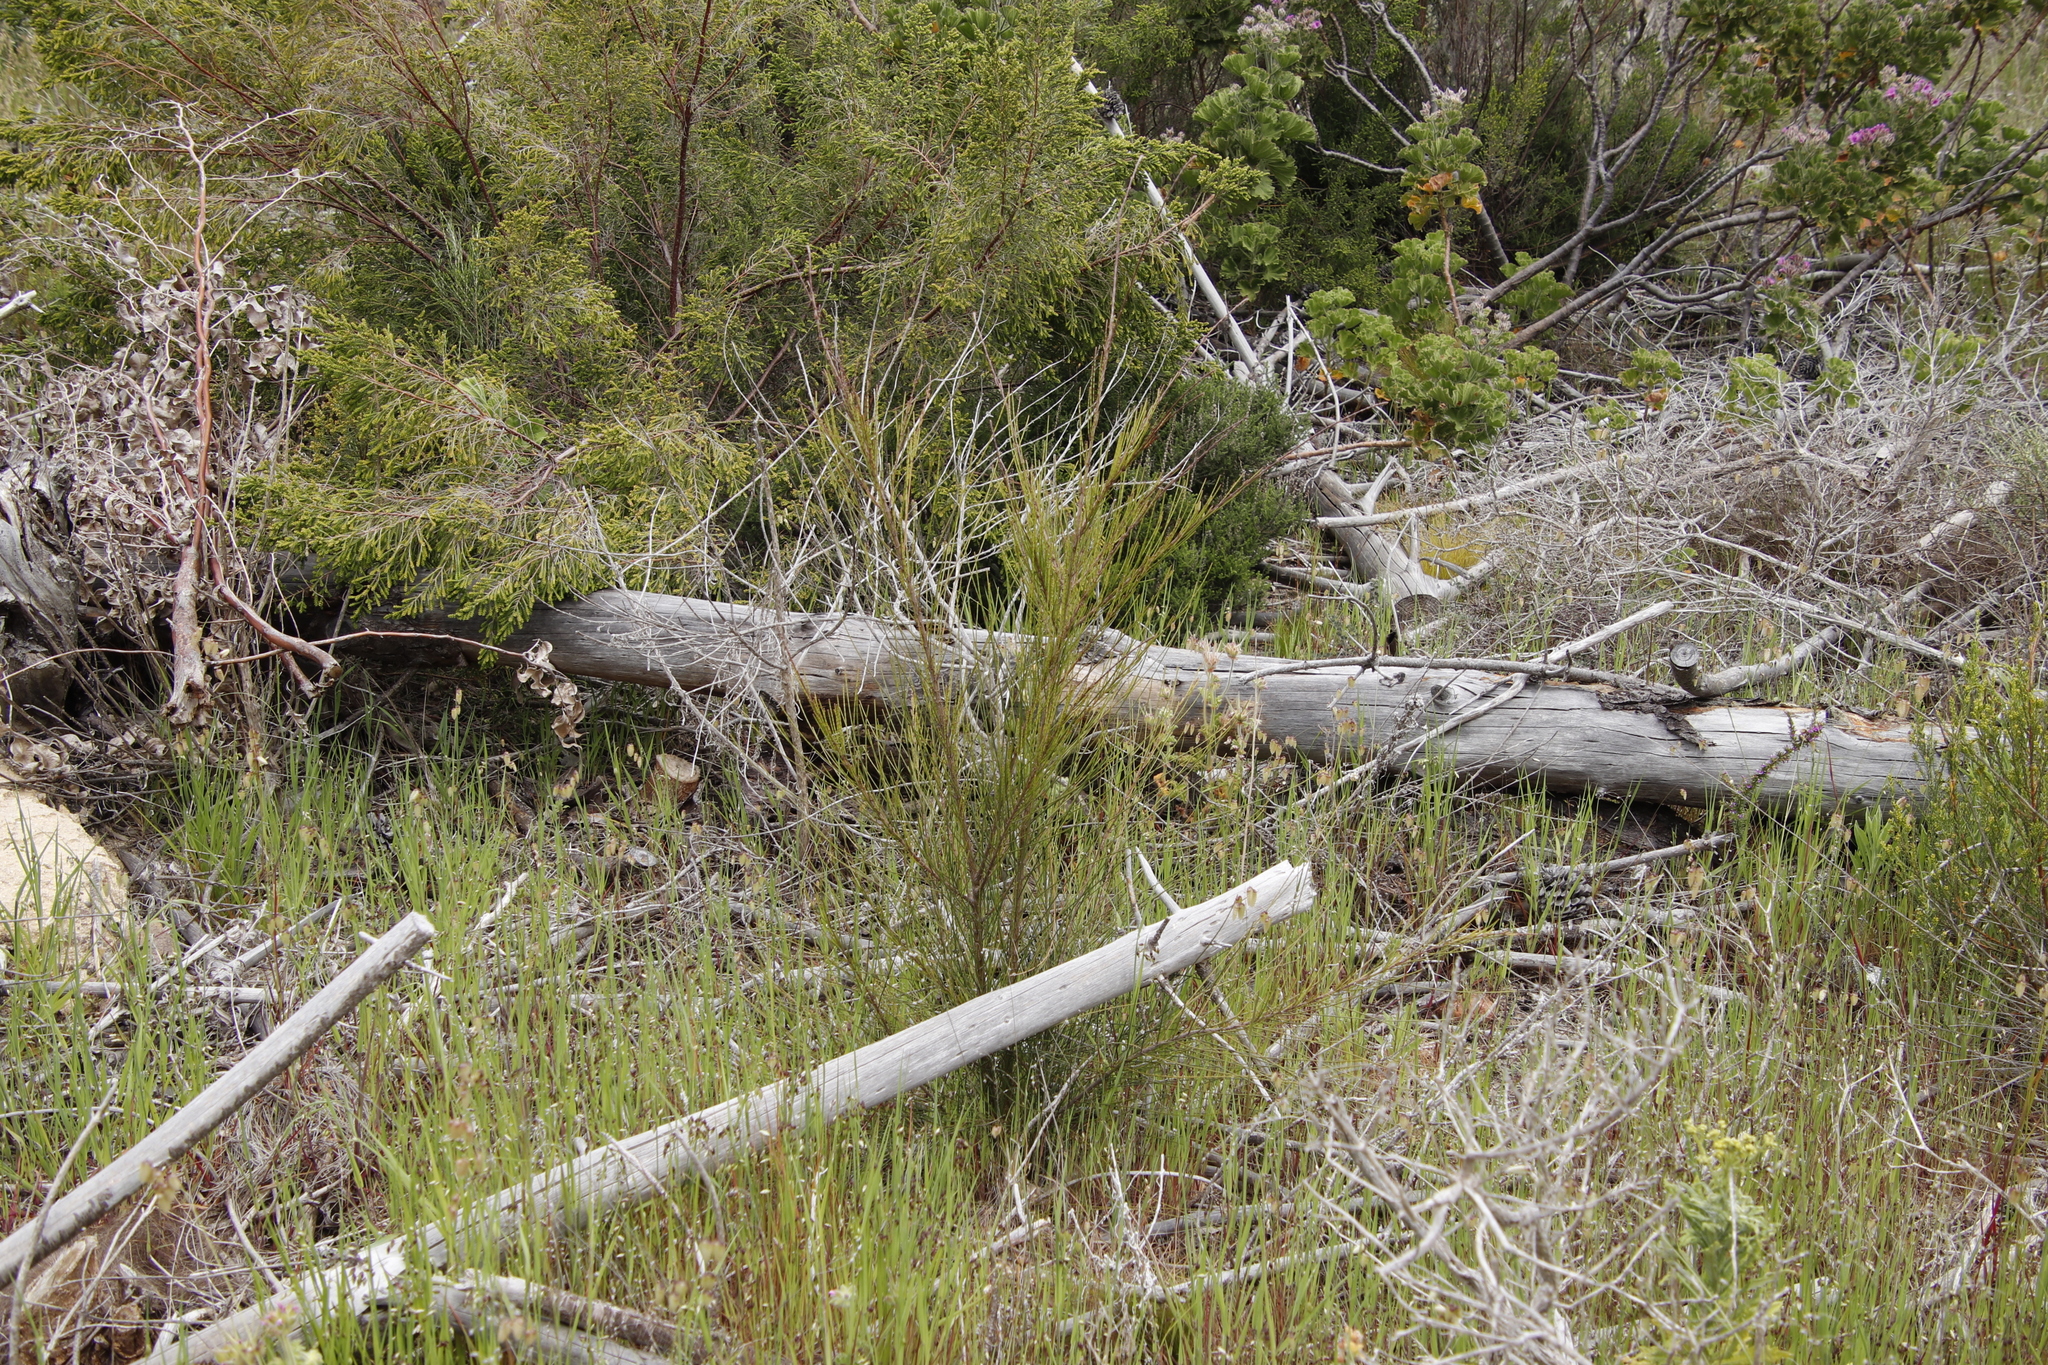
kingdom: Plantae
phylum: Tracheophyta
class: Magnoliopsida
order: Fagales
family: Casuarinaceae
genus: Casuarina
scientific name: Casuarina cunninghamiana
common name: River sheoak
